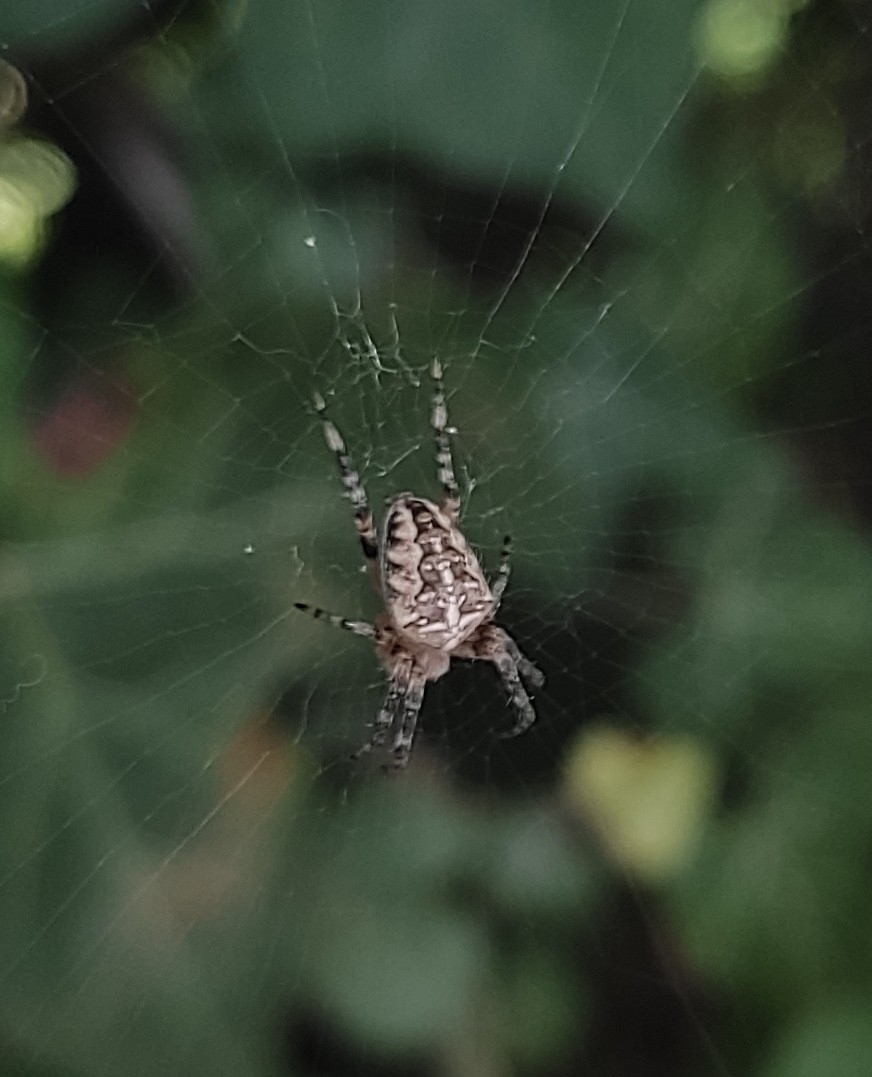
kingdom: Animalia
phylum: Arthropoda
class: Arachnida
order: Araneae
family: Araneidae
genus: Araneus
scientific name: Araneus diadematus
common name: Cross orbweaver
